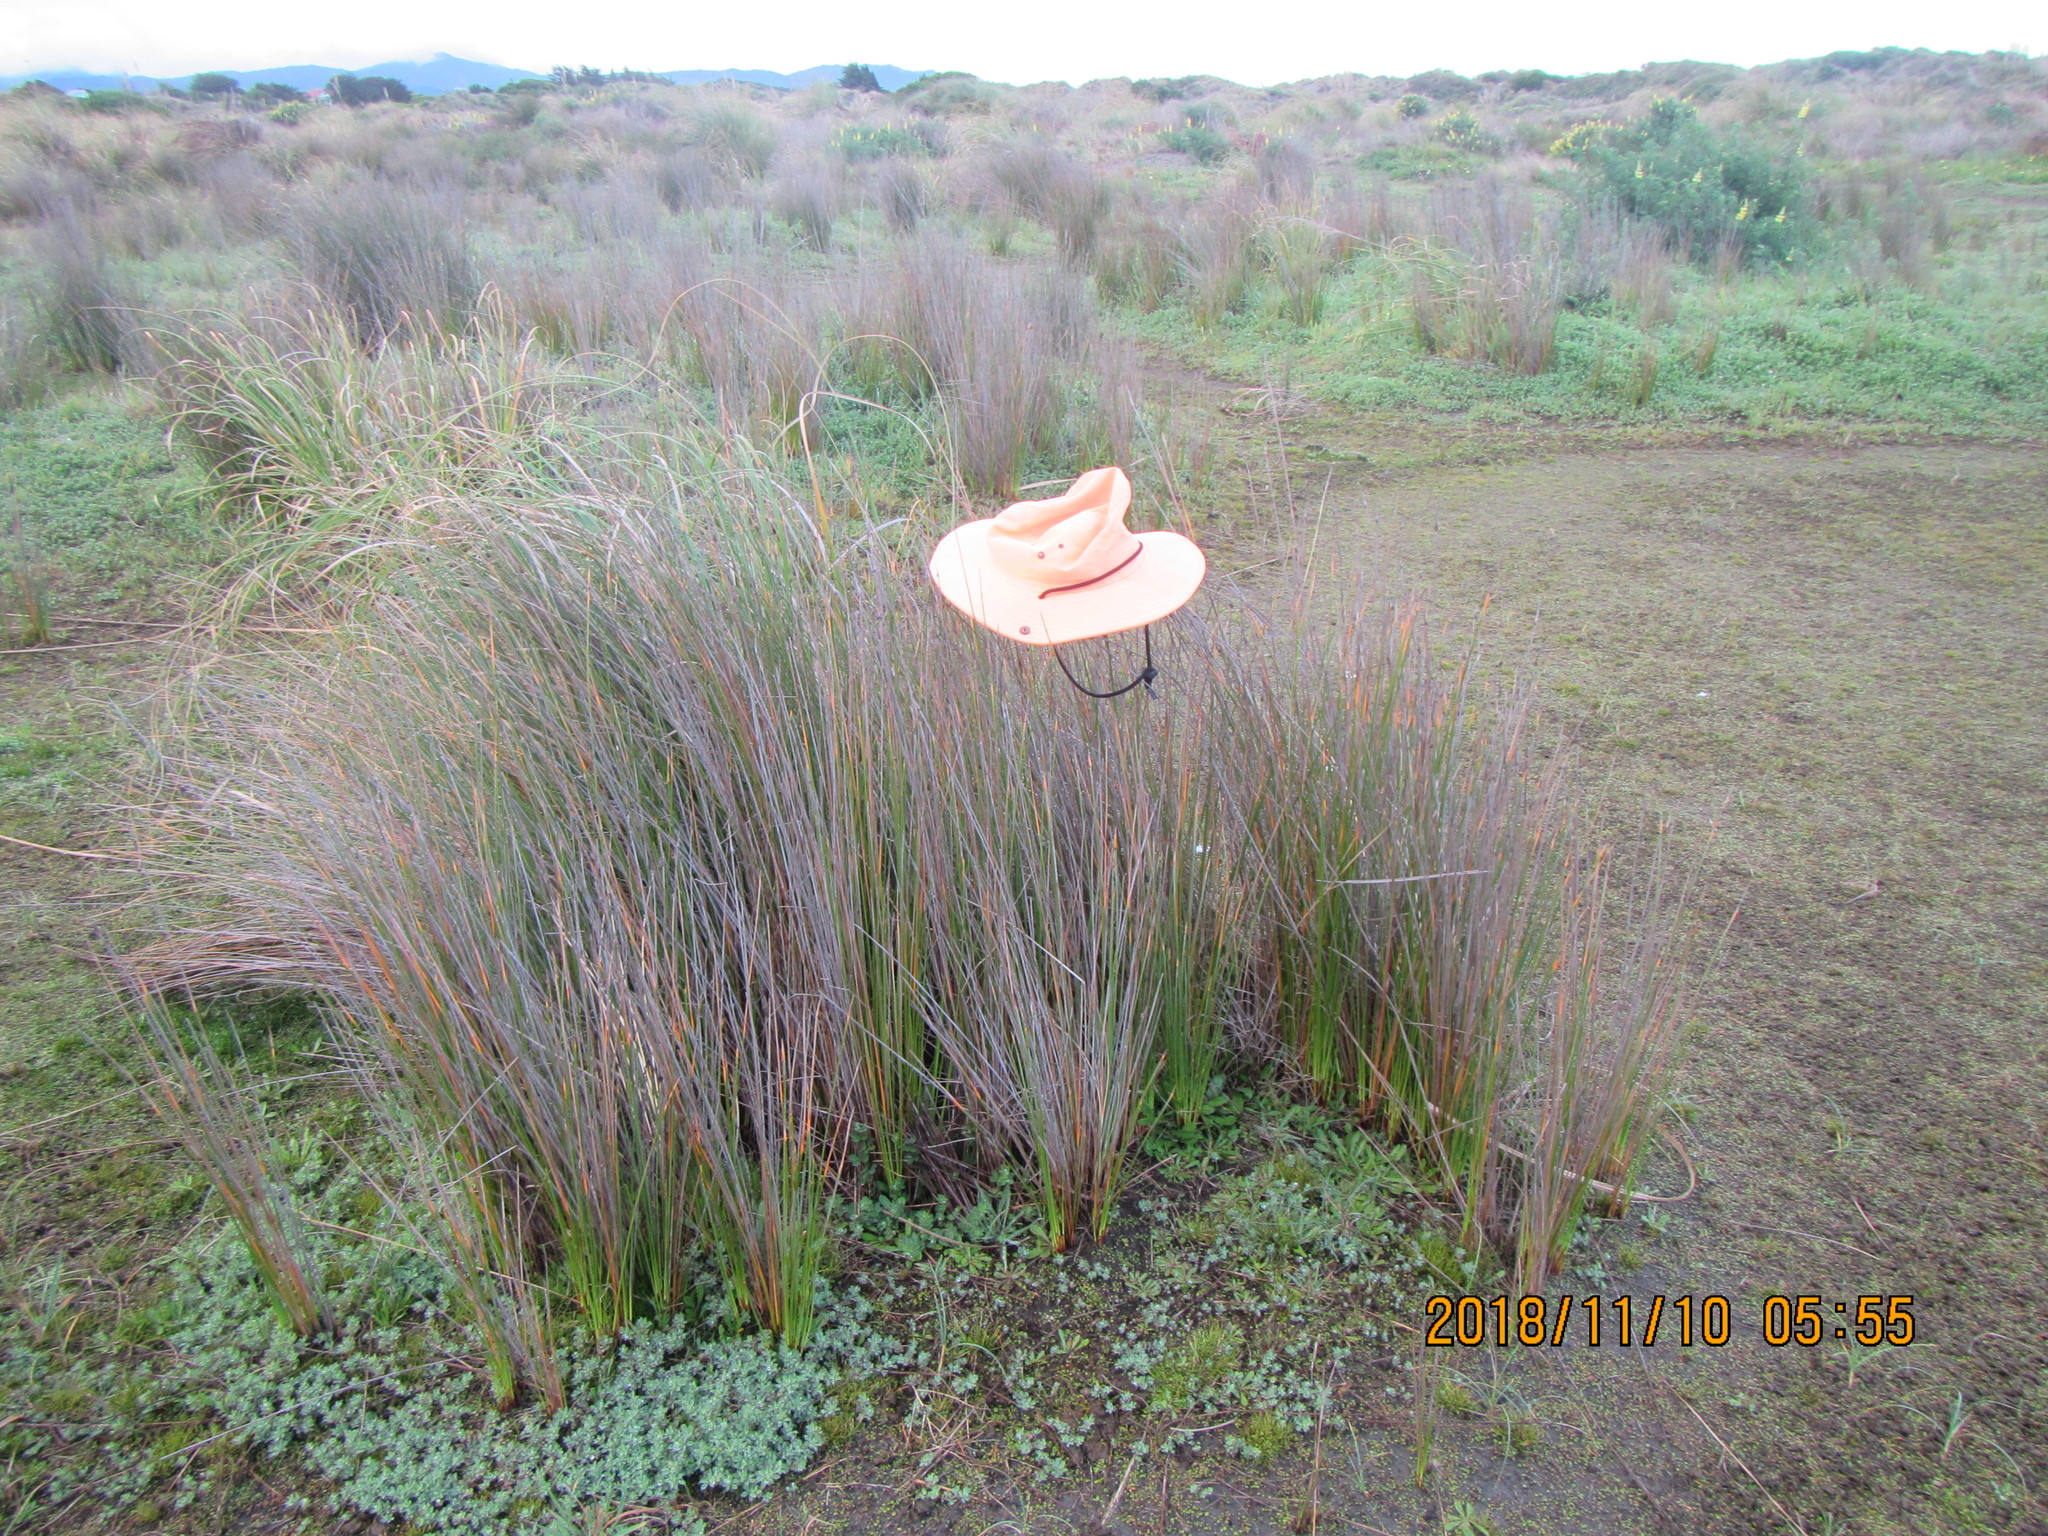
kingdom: Plantae
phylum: Tracheophyta
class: Liliopsida
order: Poales
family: Cyperaceae
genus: Ficinia
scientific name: Ficinia nodosa
